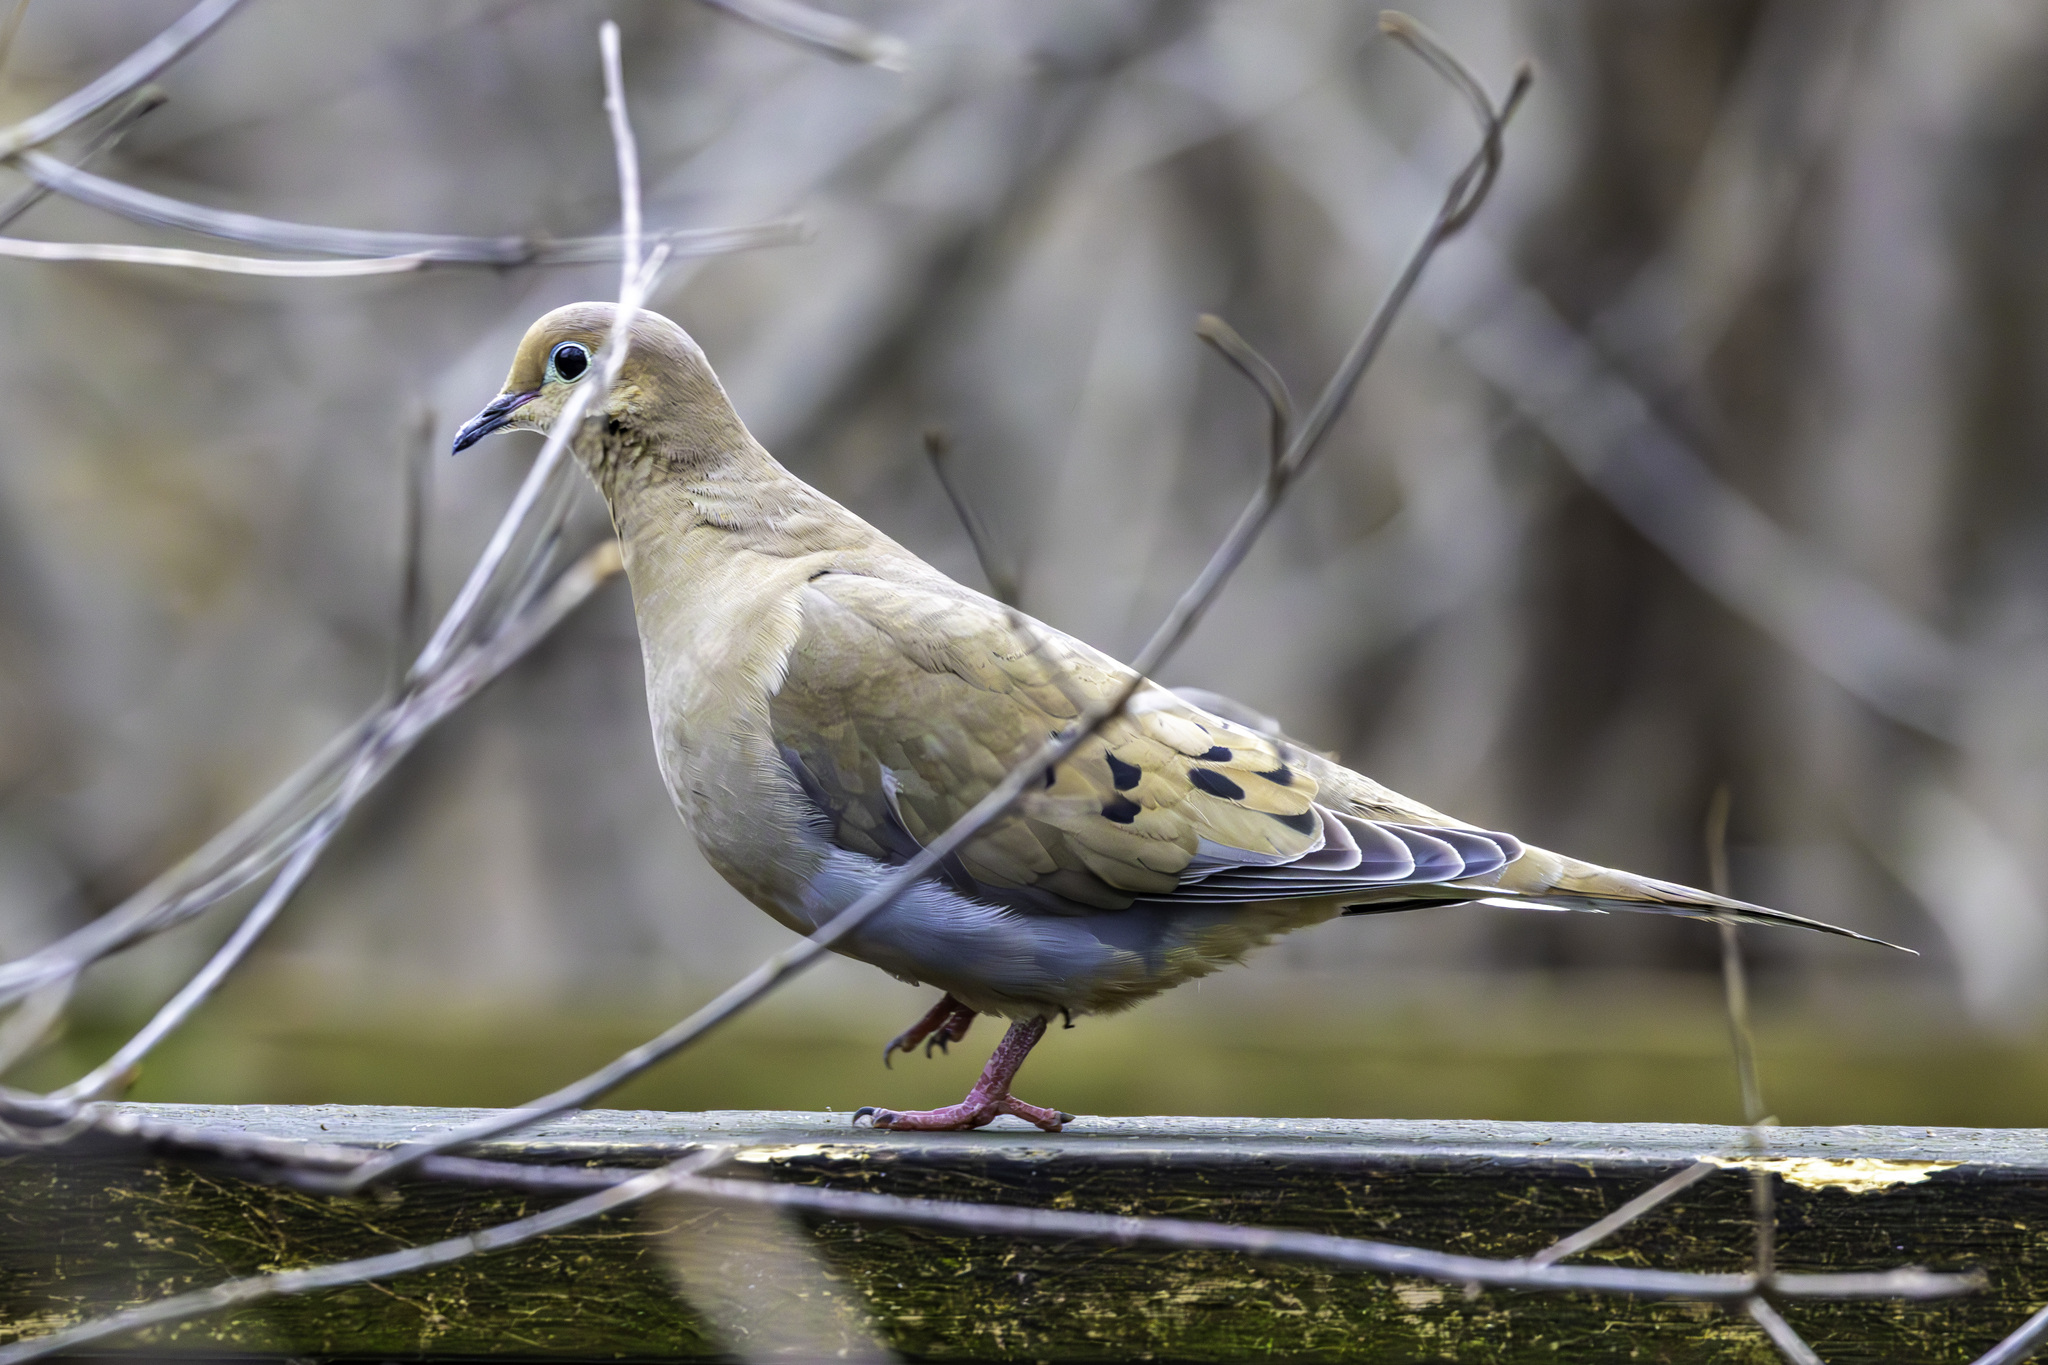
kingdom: Animalia
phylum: Chordata
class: Aves
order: Columbiformes
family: Columbidae
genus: Zenaida
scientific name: Zenaida macroura
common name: Mourning dove
